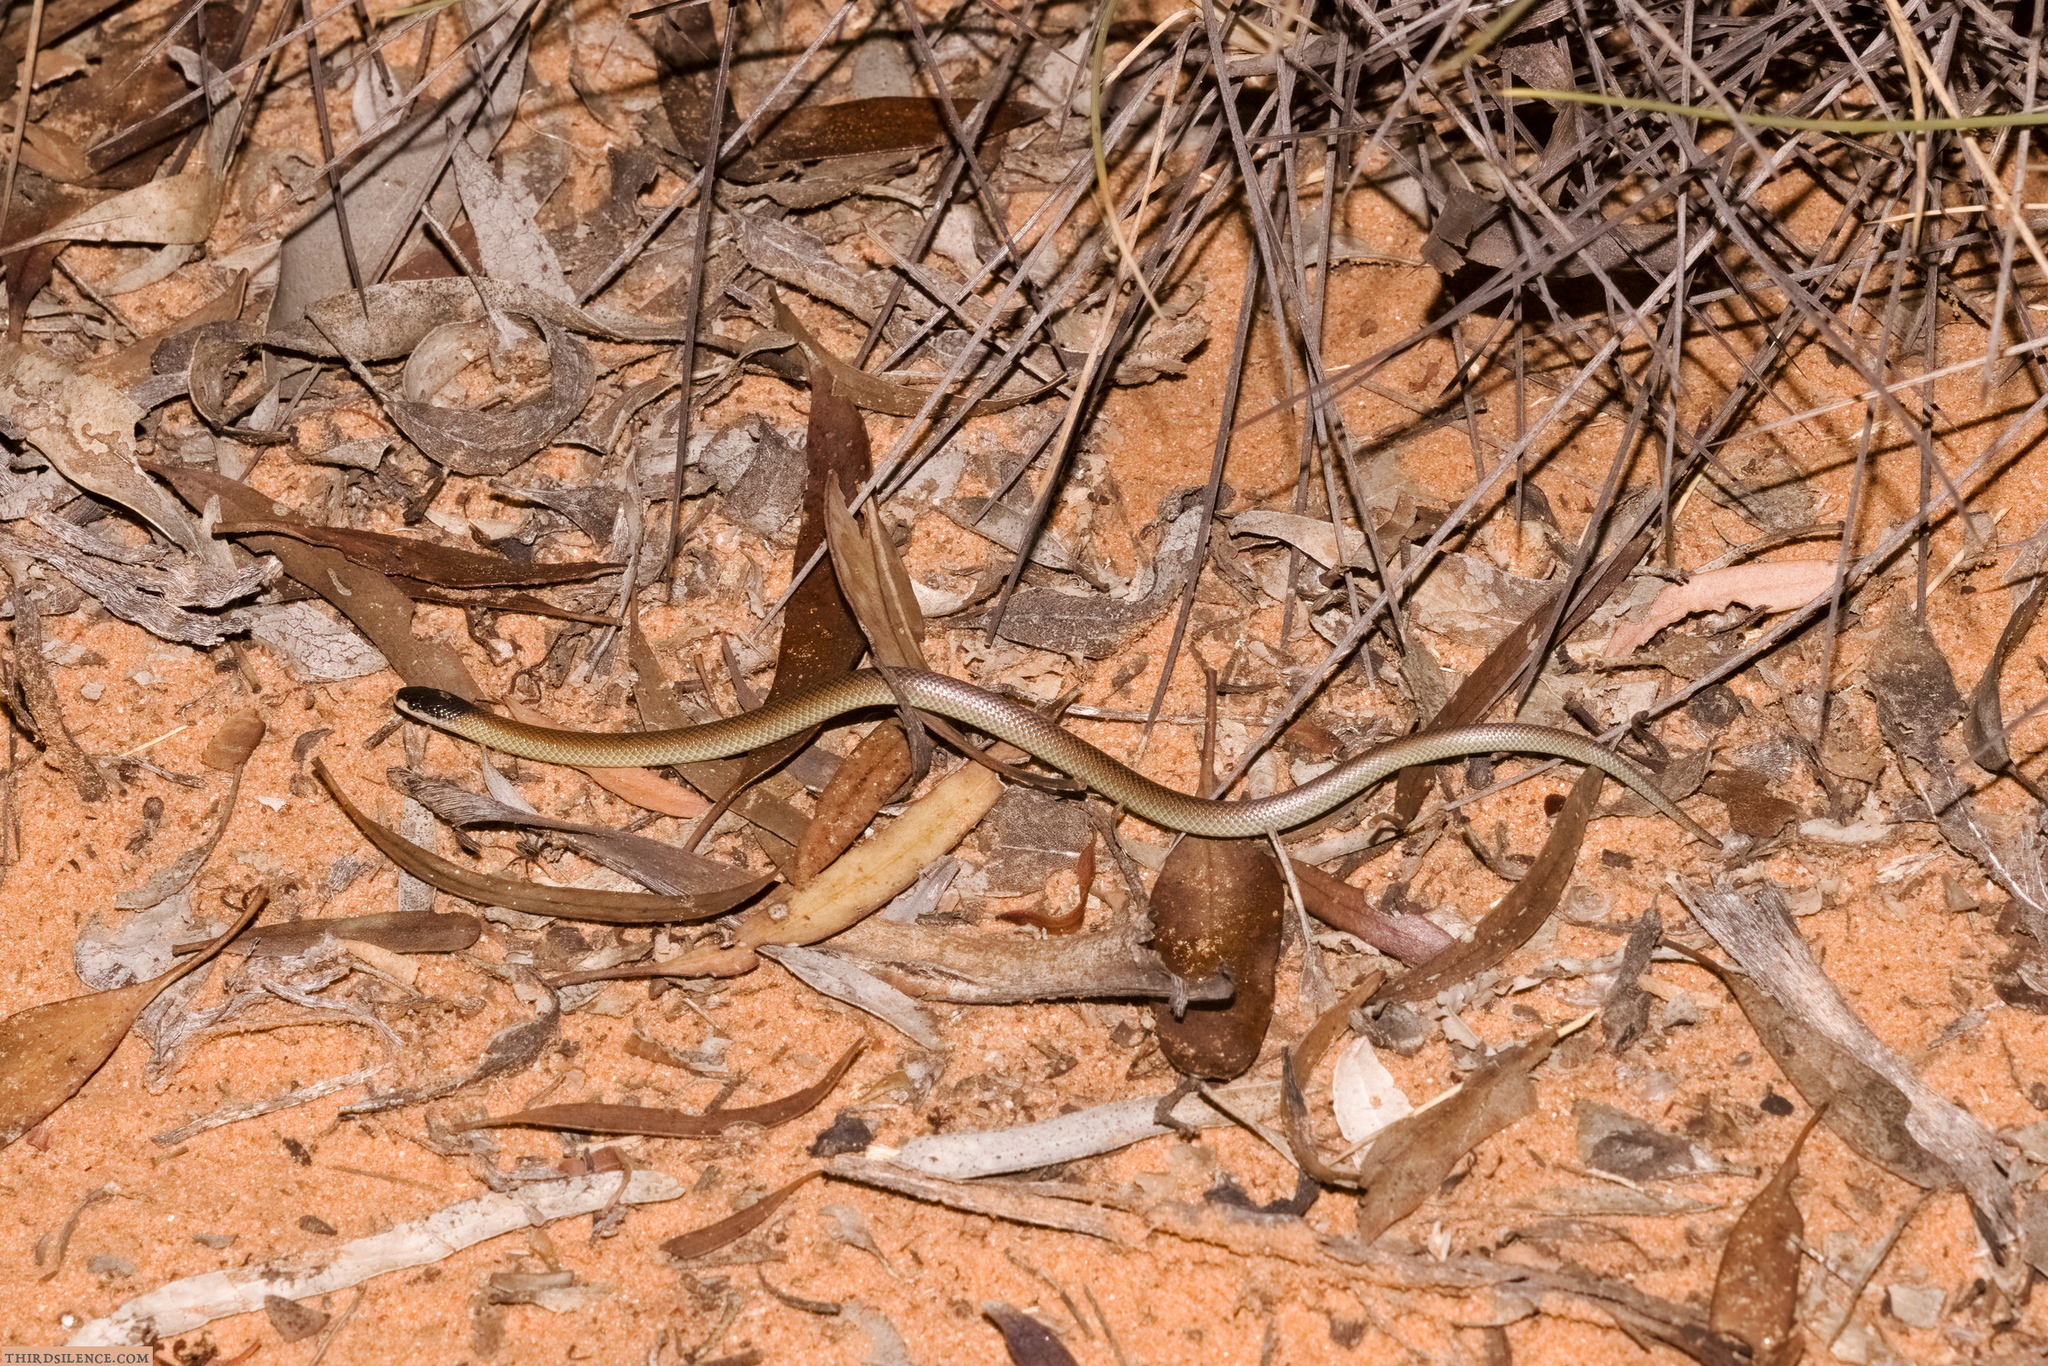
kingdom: Animalia
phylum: Chordata
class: Squamata
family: Elapidae
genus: Suta
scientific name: Suta dwyeri
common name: Variable black-naped snake
